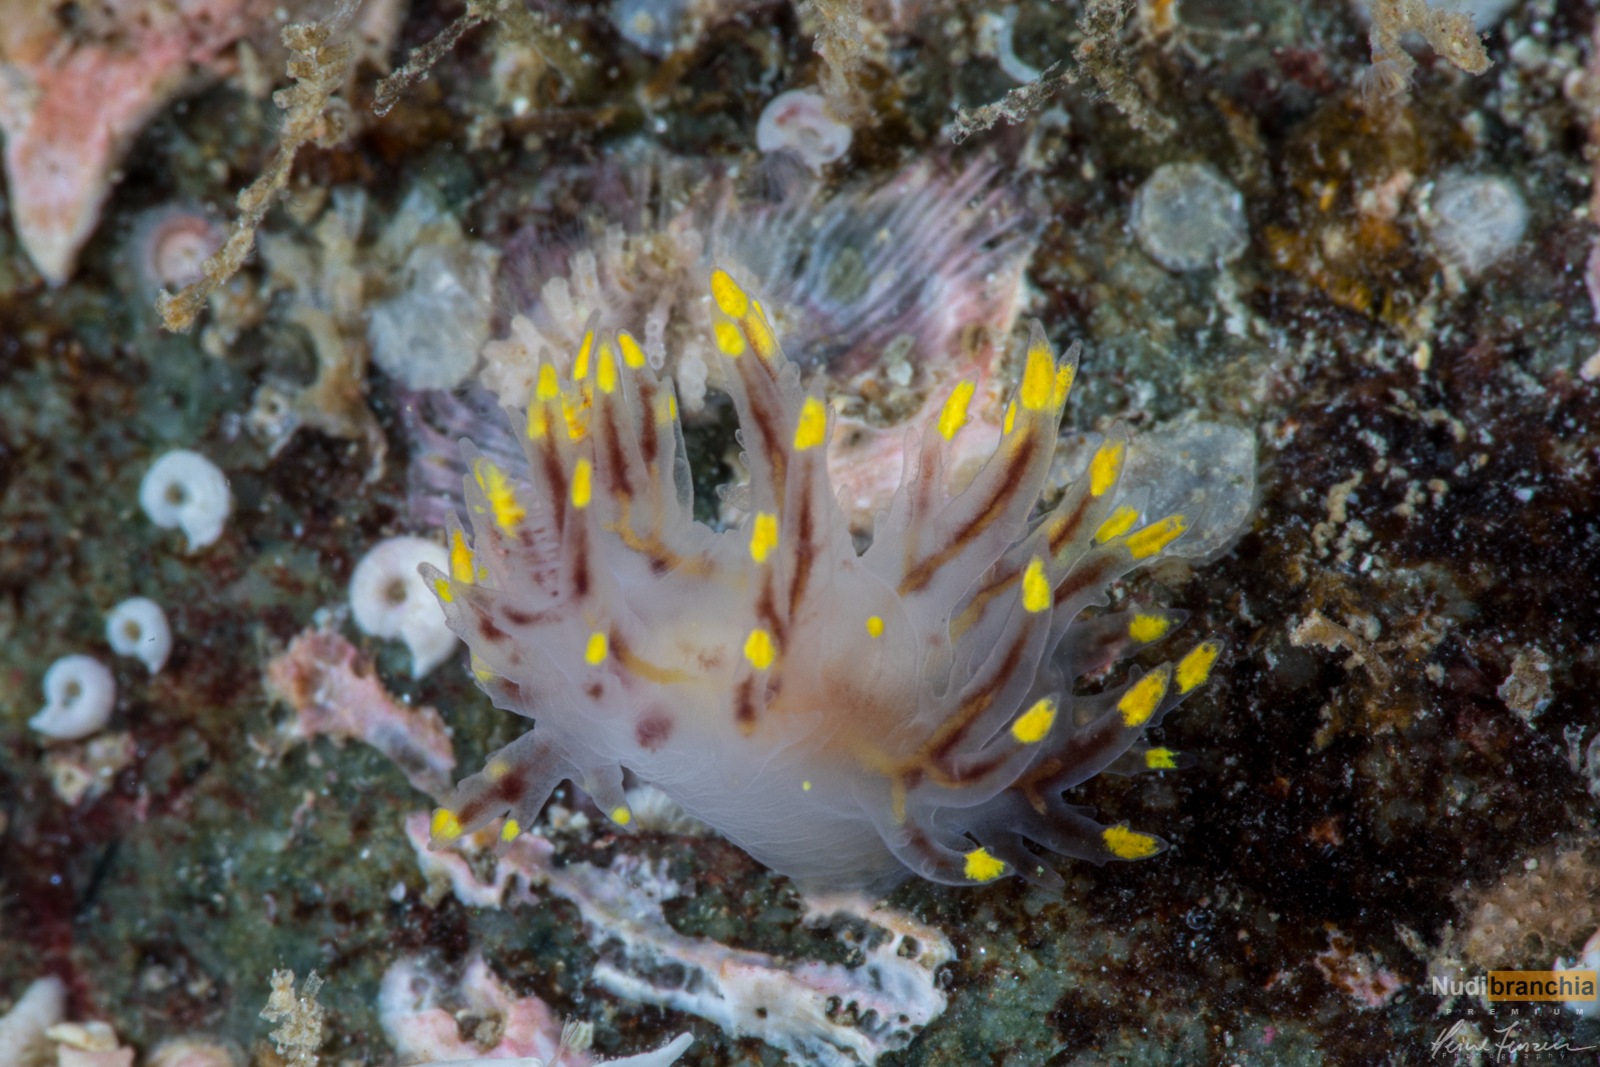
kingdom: Animalia
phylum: Mollusca
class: Gastropoda
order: Nudibranchia
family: Dendronotidae
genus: Dendronotus
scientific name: Dendronotus yrjargul
